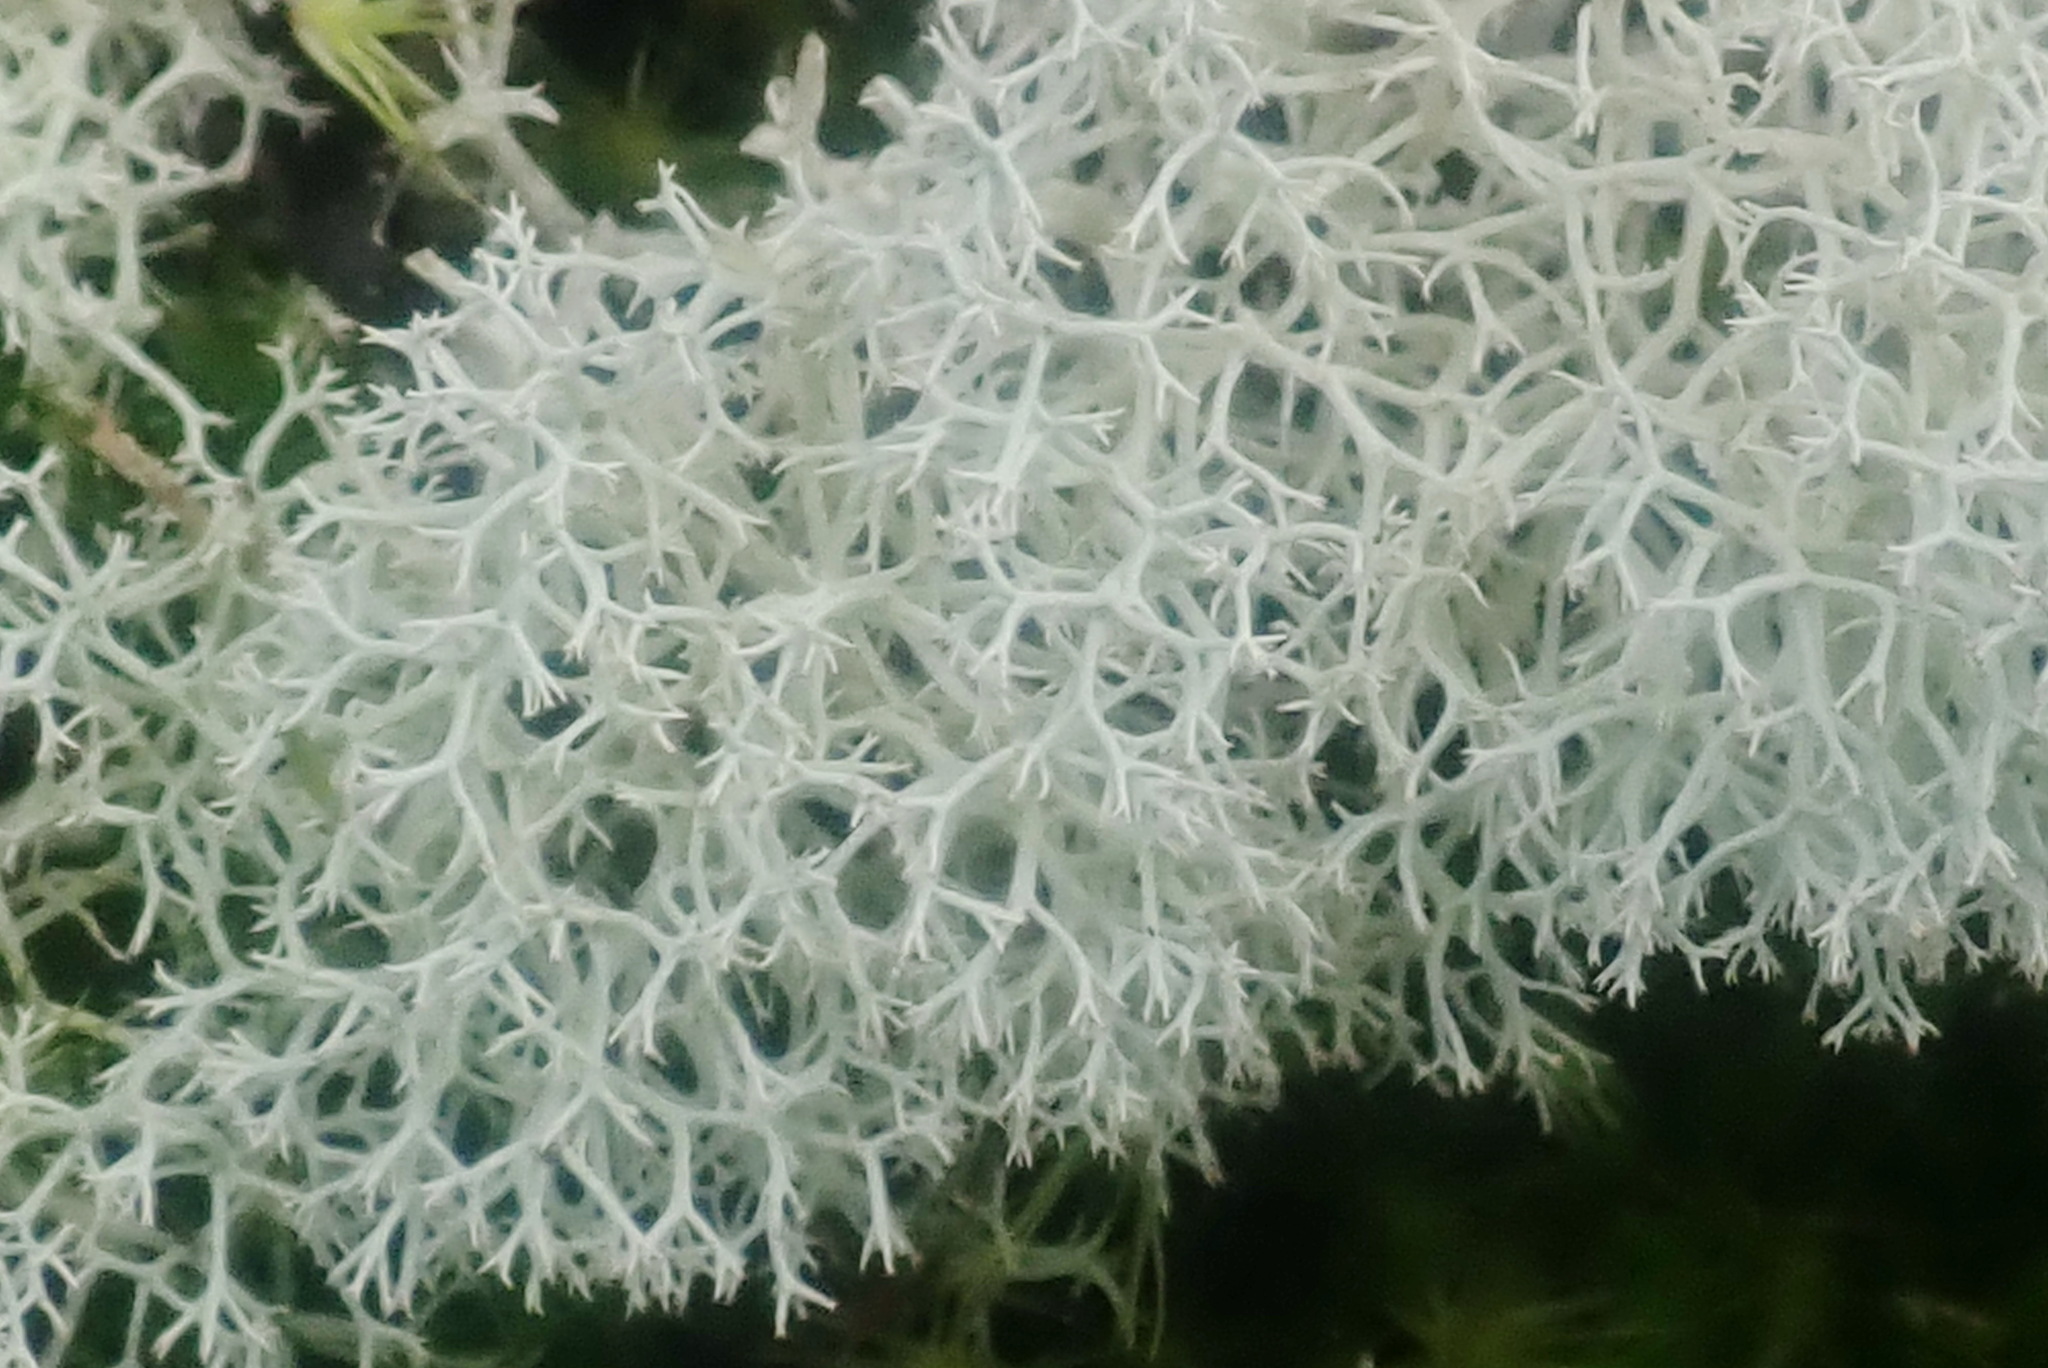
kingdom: Fungi
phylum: Ascomycota
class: Lecanoromycetes
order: Lecanorales
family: Cladoniaceae
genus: Cladonia
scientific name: Cladonia confusa
